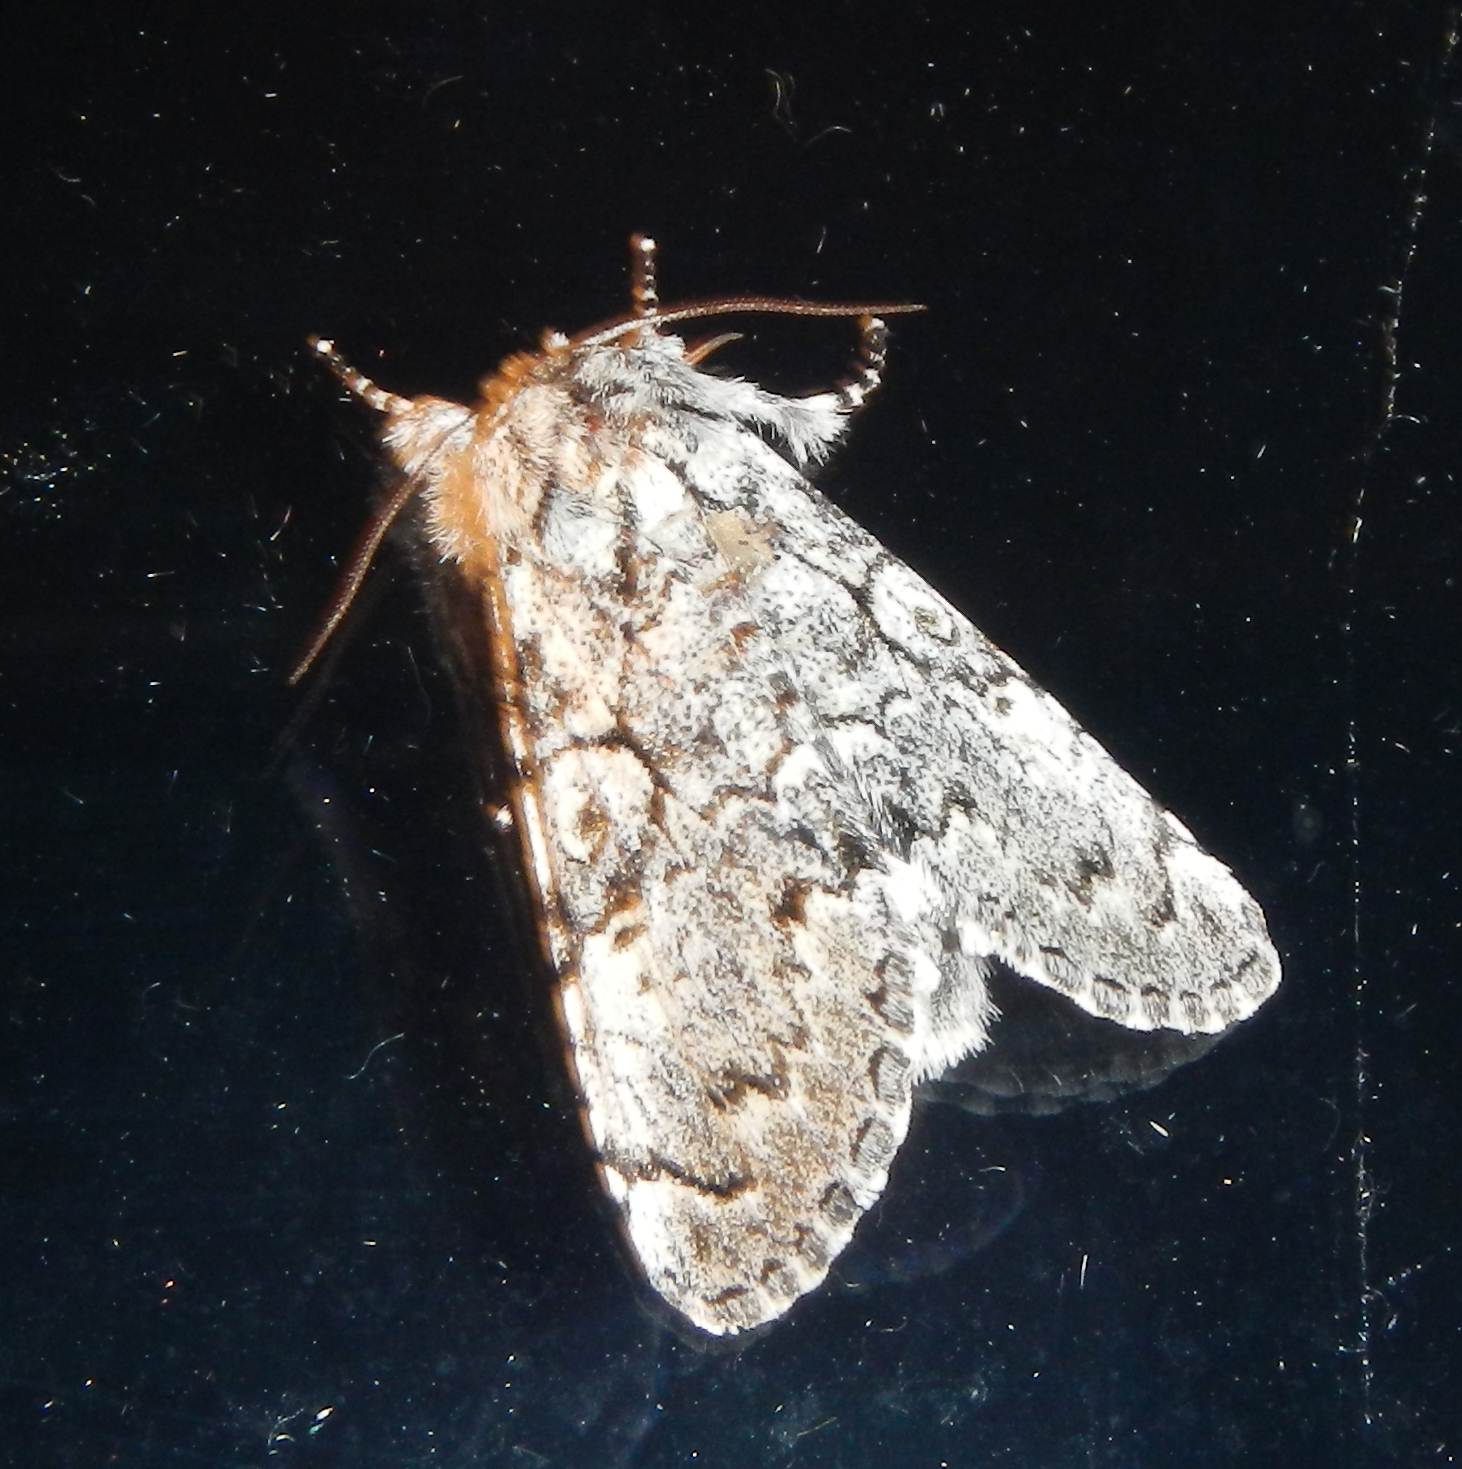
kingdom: Animalia
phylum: Arthropoda
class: Insecta
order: Lepidoptera
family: Noctuidae
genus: Charadra
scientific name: Charadra deridens
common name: Marbled tuffet
